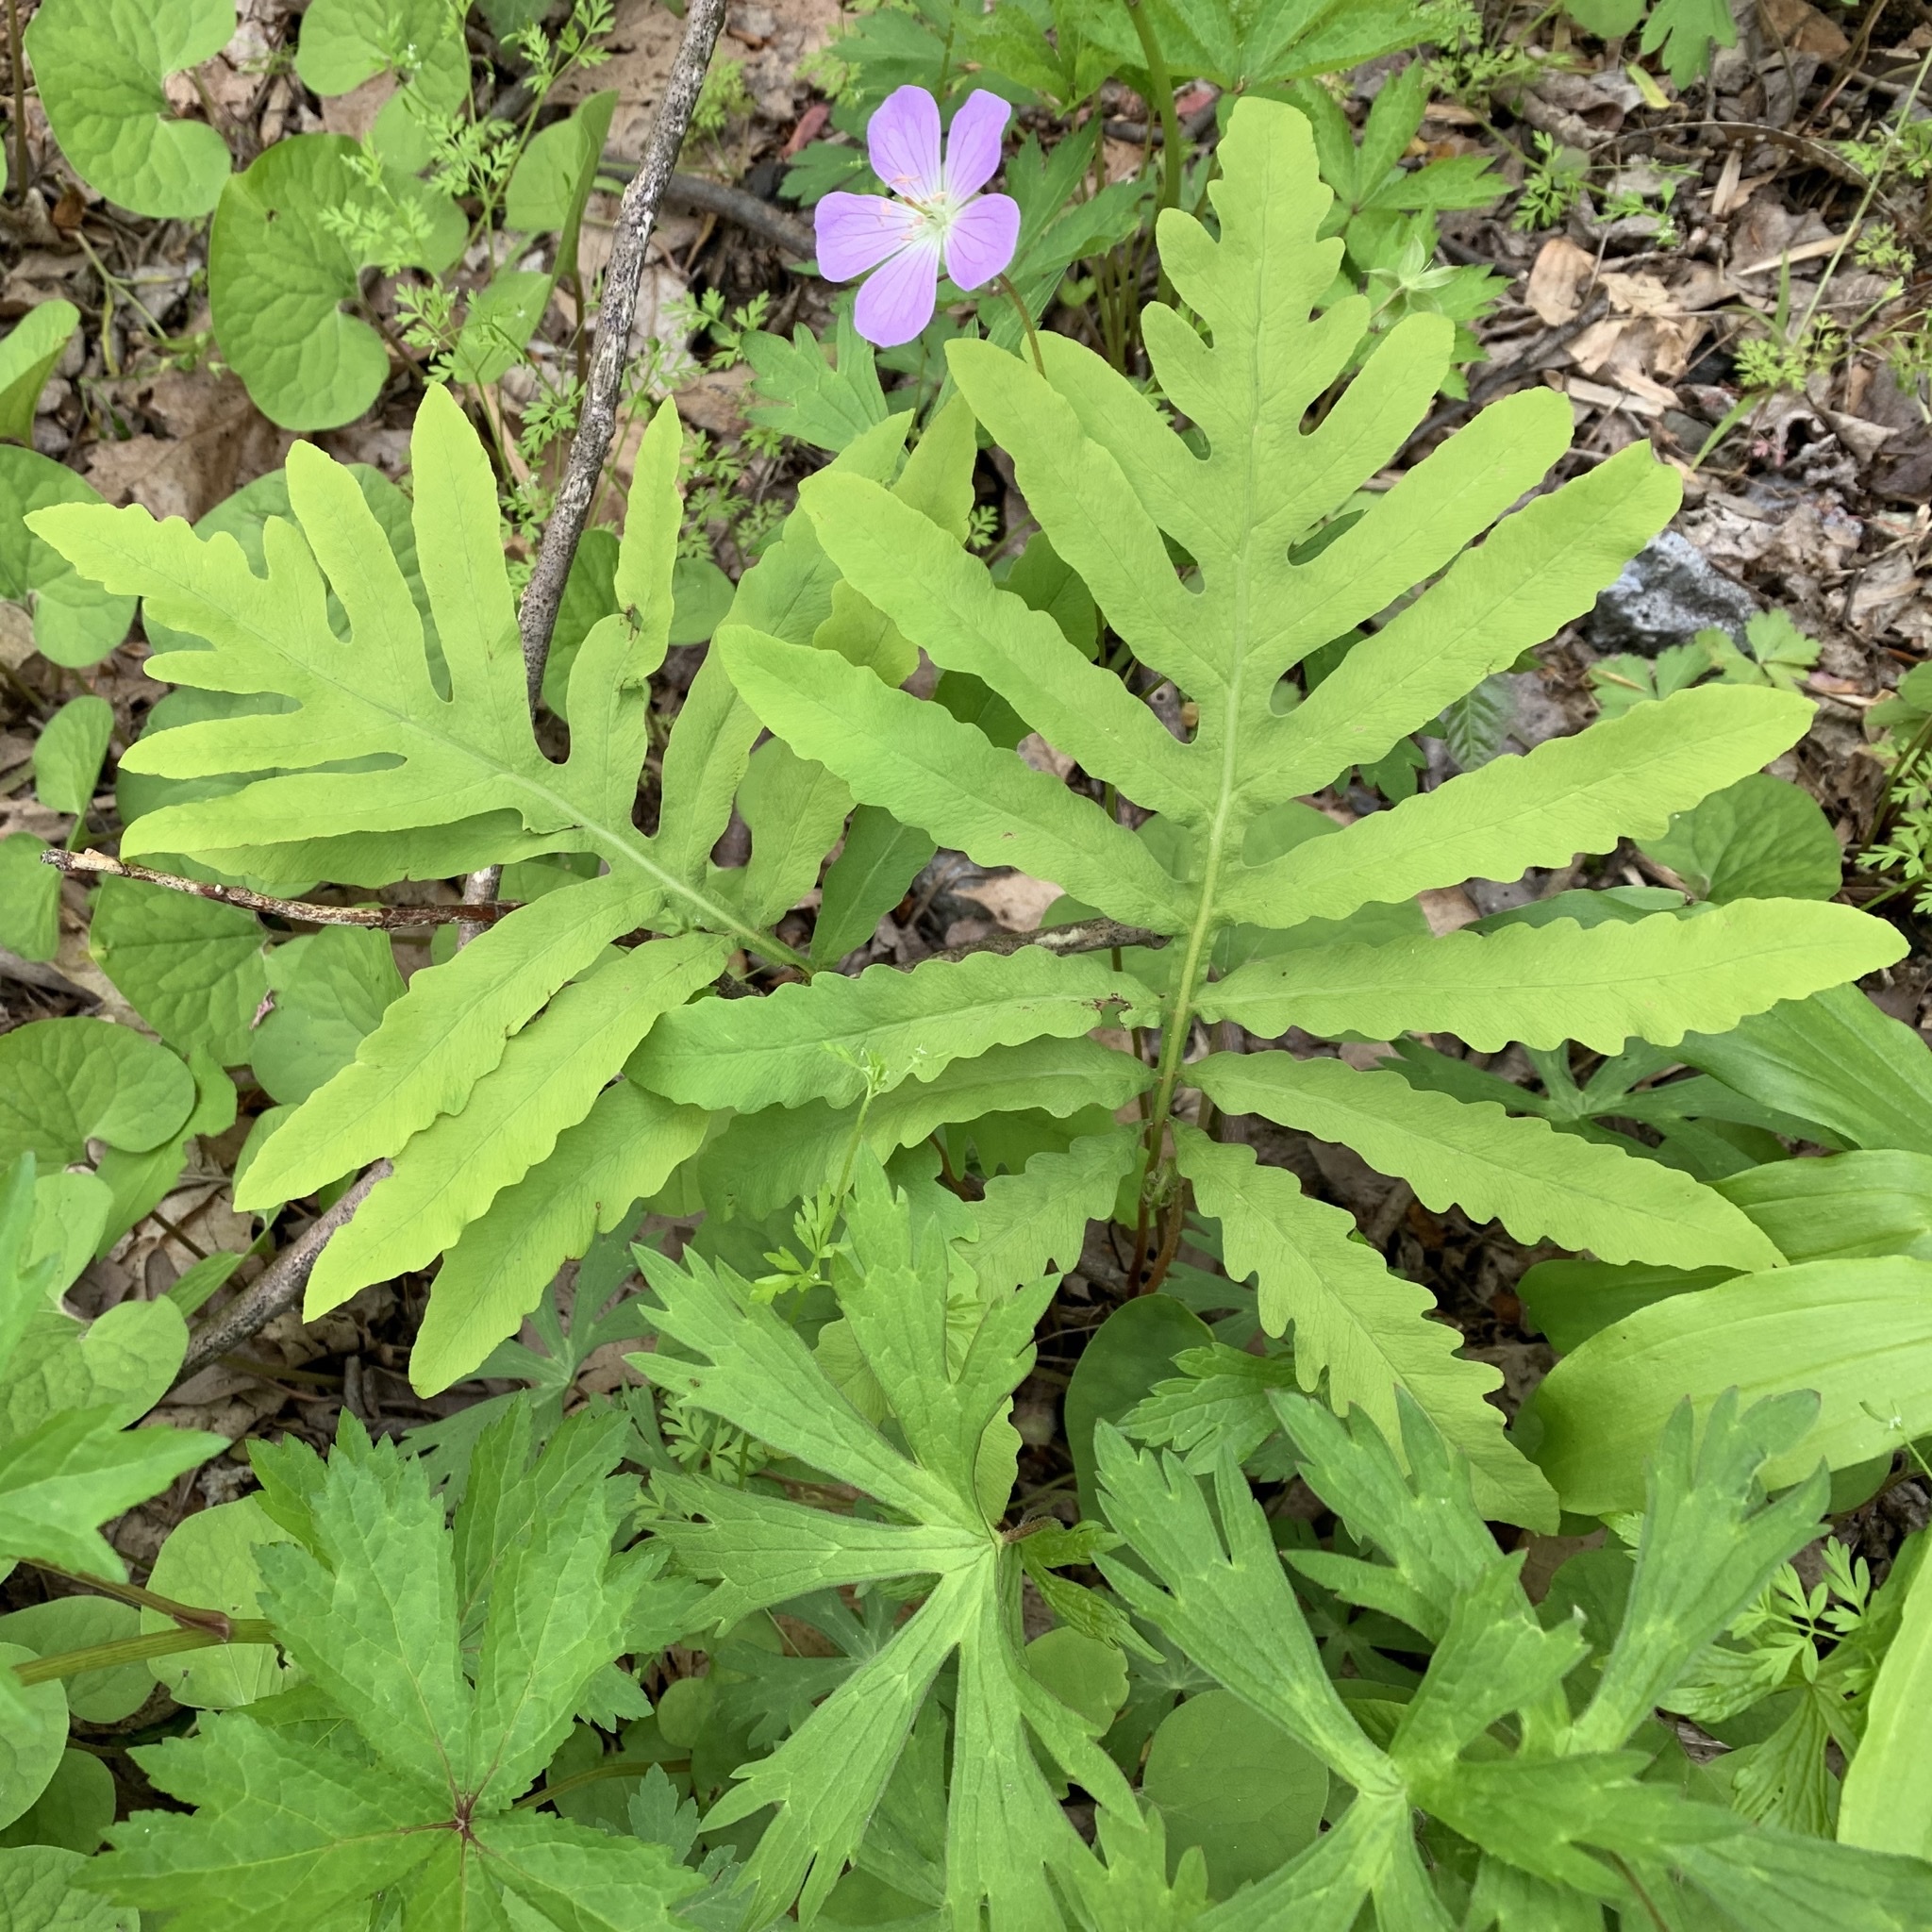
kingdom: Plantae
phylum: Tracheophyta
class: Polypodiopsida
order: Polypodiales
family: Onocleaceae
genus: Onoclea
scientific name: Onoclea sensibilis
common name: Sensitive fern
